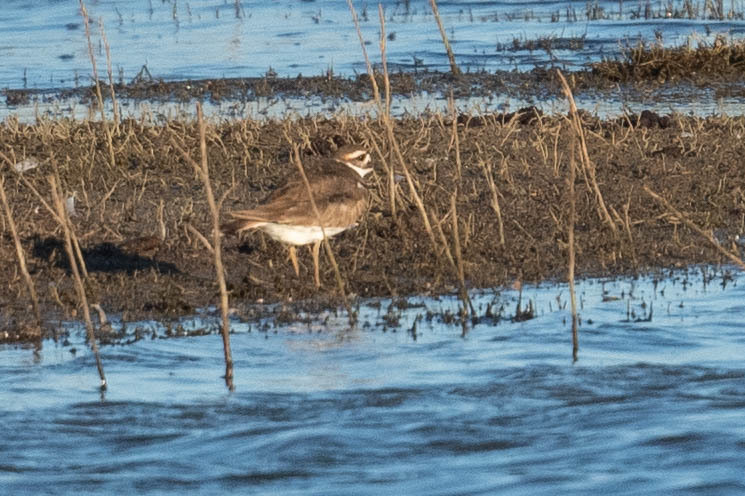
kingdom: Animalia
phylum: Chordata
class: Aves
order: Charadriiformes
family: Charadriidae
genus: Charadrius
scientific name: Charadrius vociferus
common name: Killdeer
